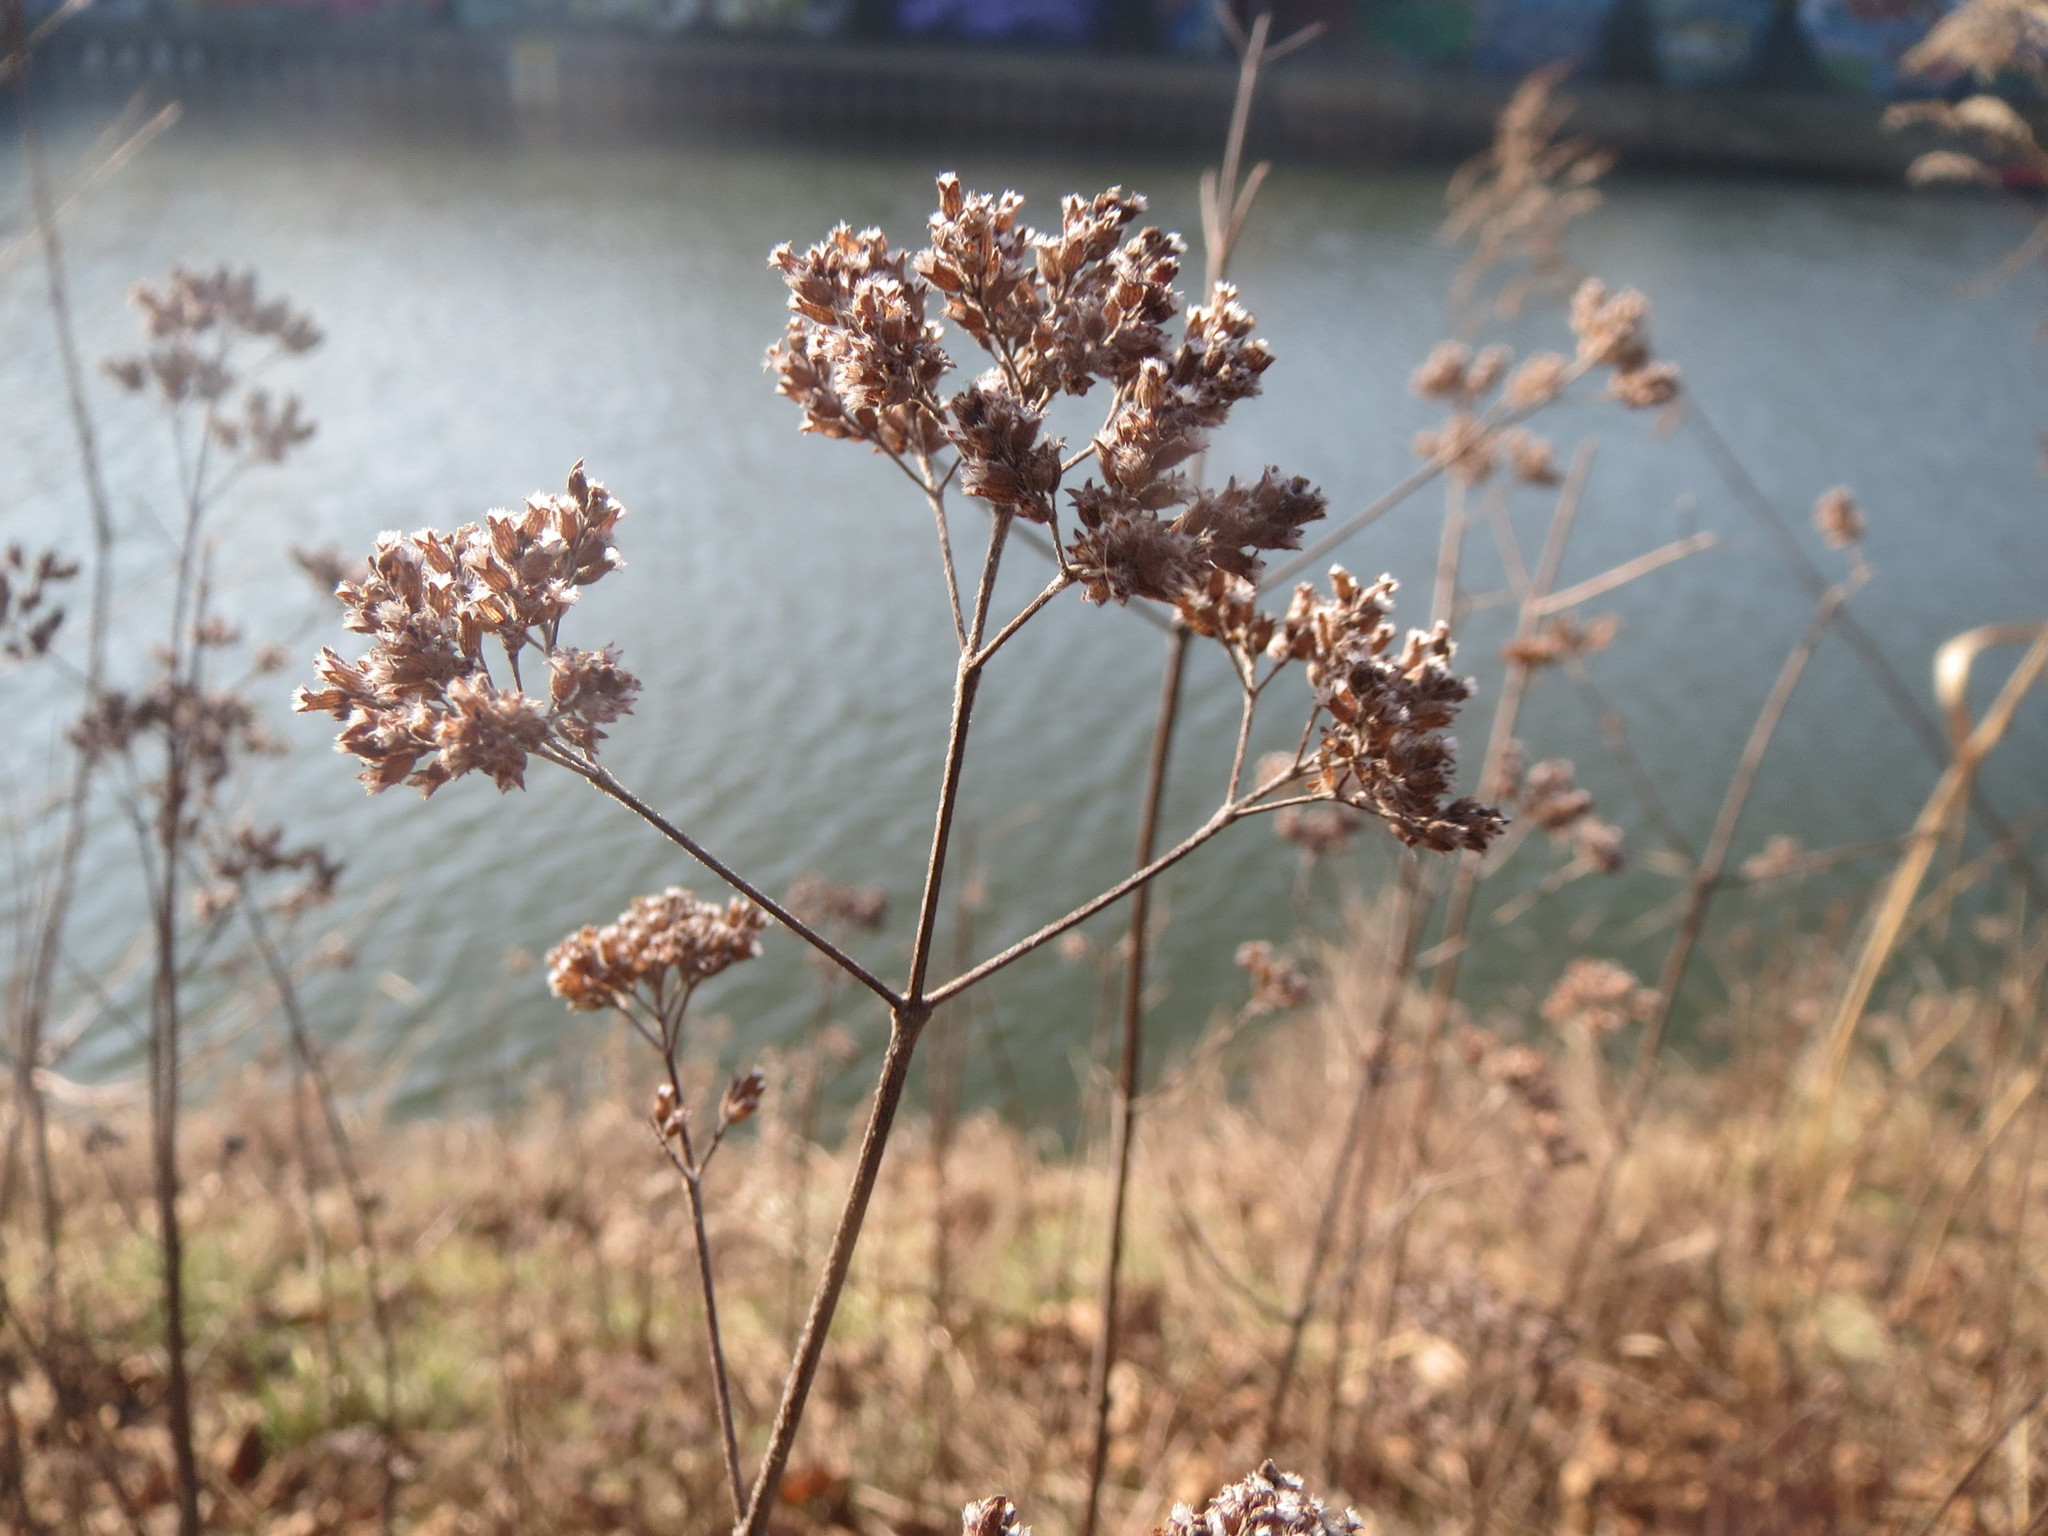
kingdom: Plantae
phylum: Tracheophyta
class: Magnoliopsida
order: Lamiales
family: Lamiaceae
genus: Origanum
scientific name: Origanum vulgare
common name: Wild marjoram
